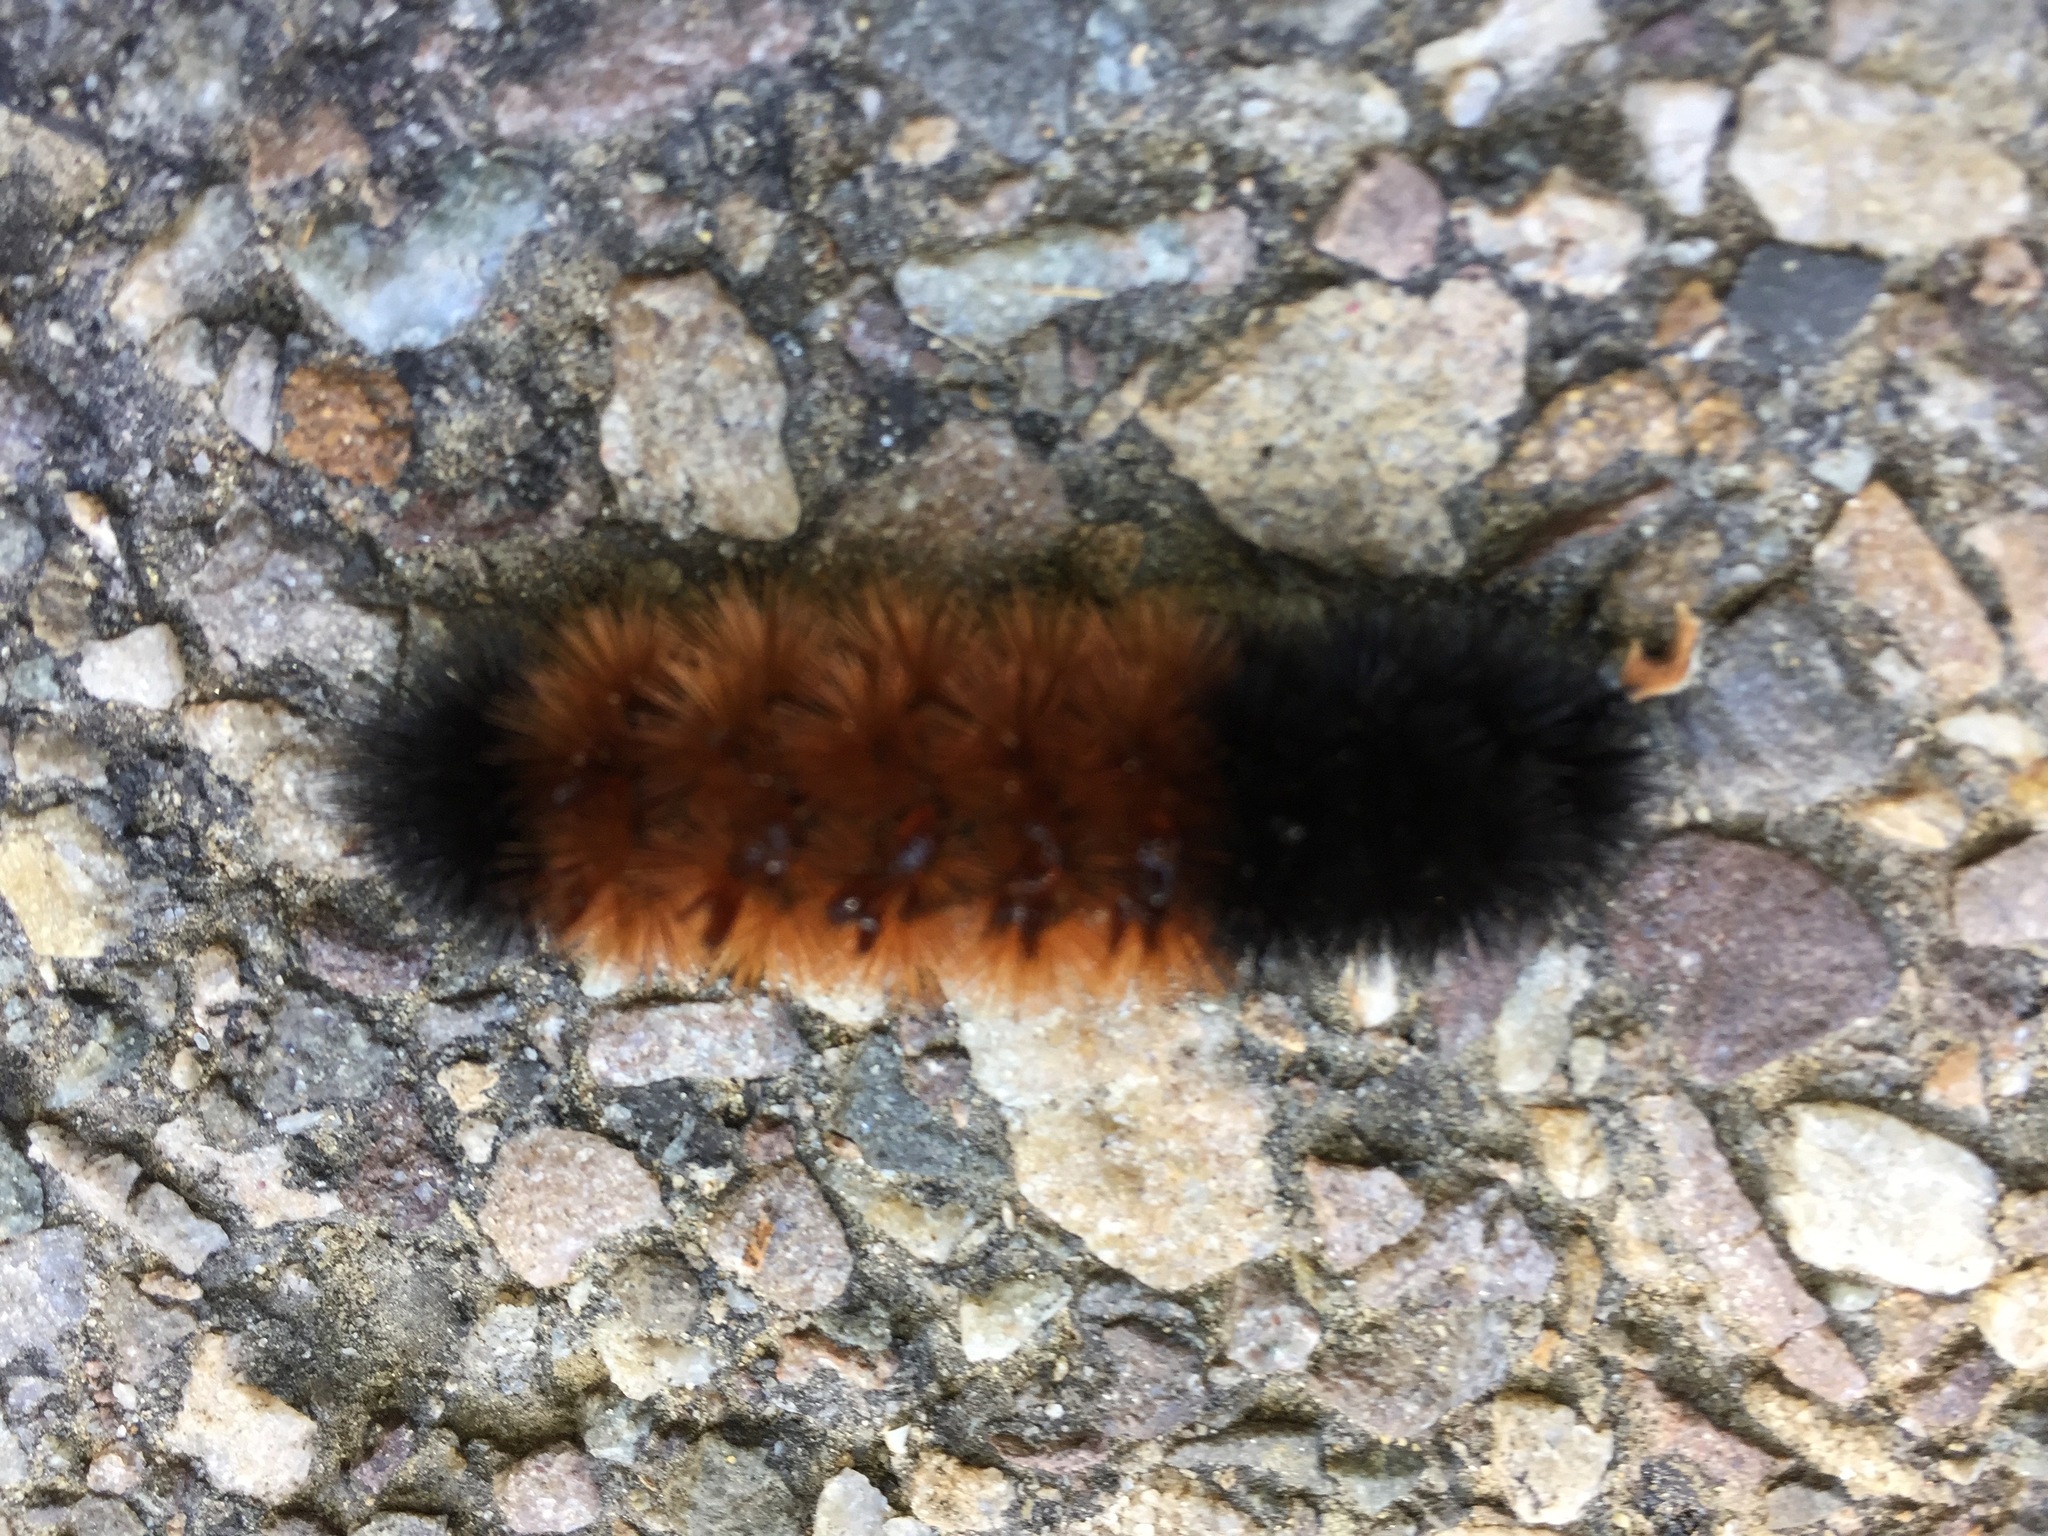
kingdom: Animalia
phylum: Arthropoda
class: Insecta
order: Lepidoptera
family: Erebidae
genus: Pyrrharctia
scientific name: Pyrrharctia isabella
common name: Isabella tiger moth
